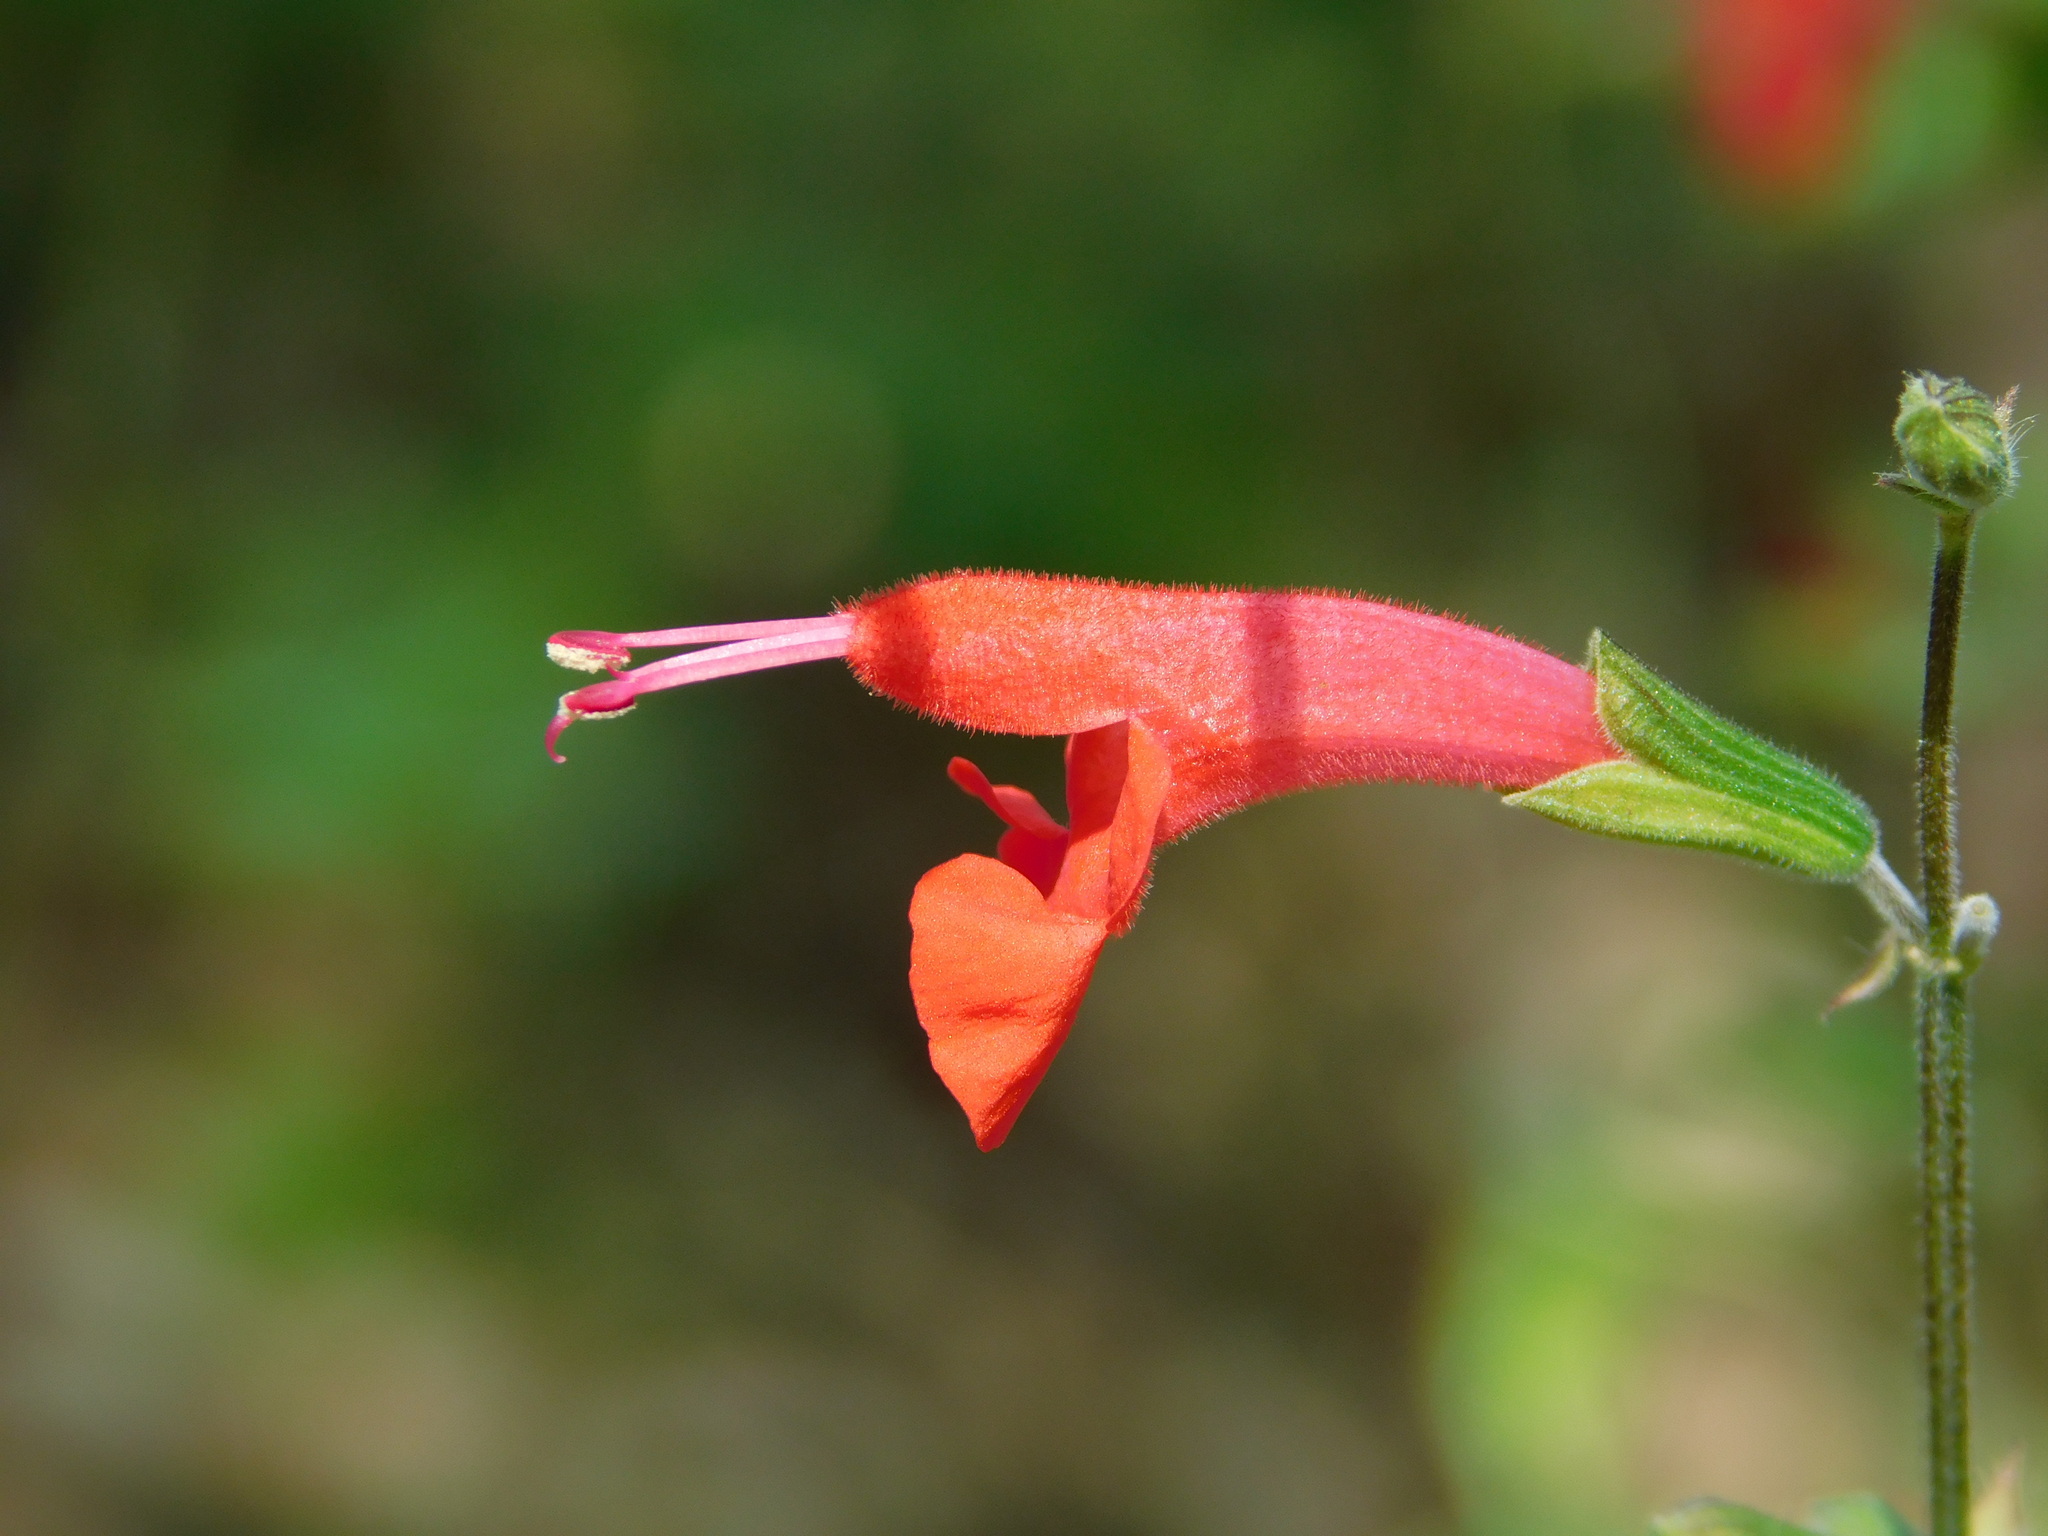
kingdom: Plantae
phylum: Tracheophyta
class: Magnoliopsida
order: Lamiales
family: Lamiaceae
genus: Salvia
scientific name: Salvia coccinea
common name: Blood sage
